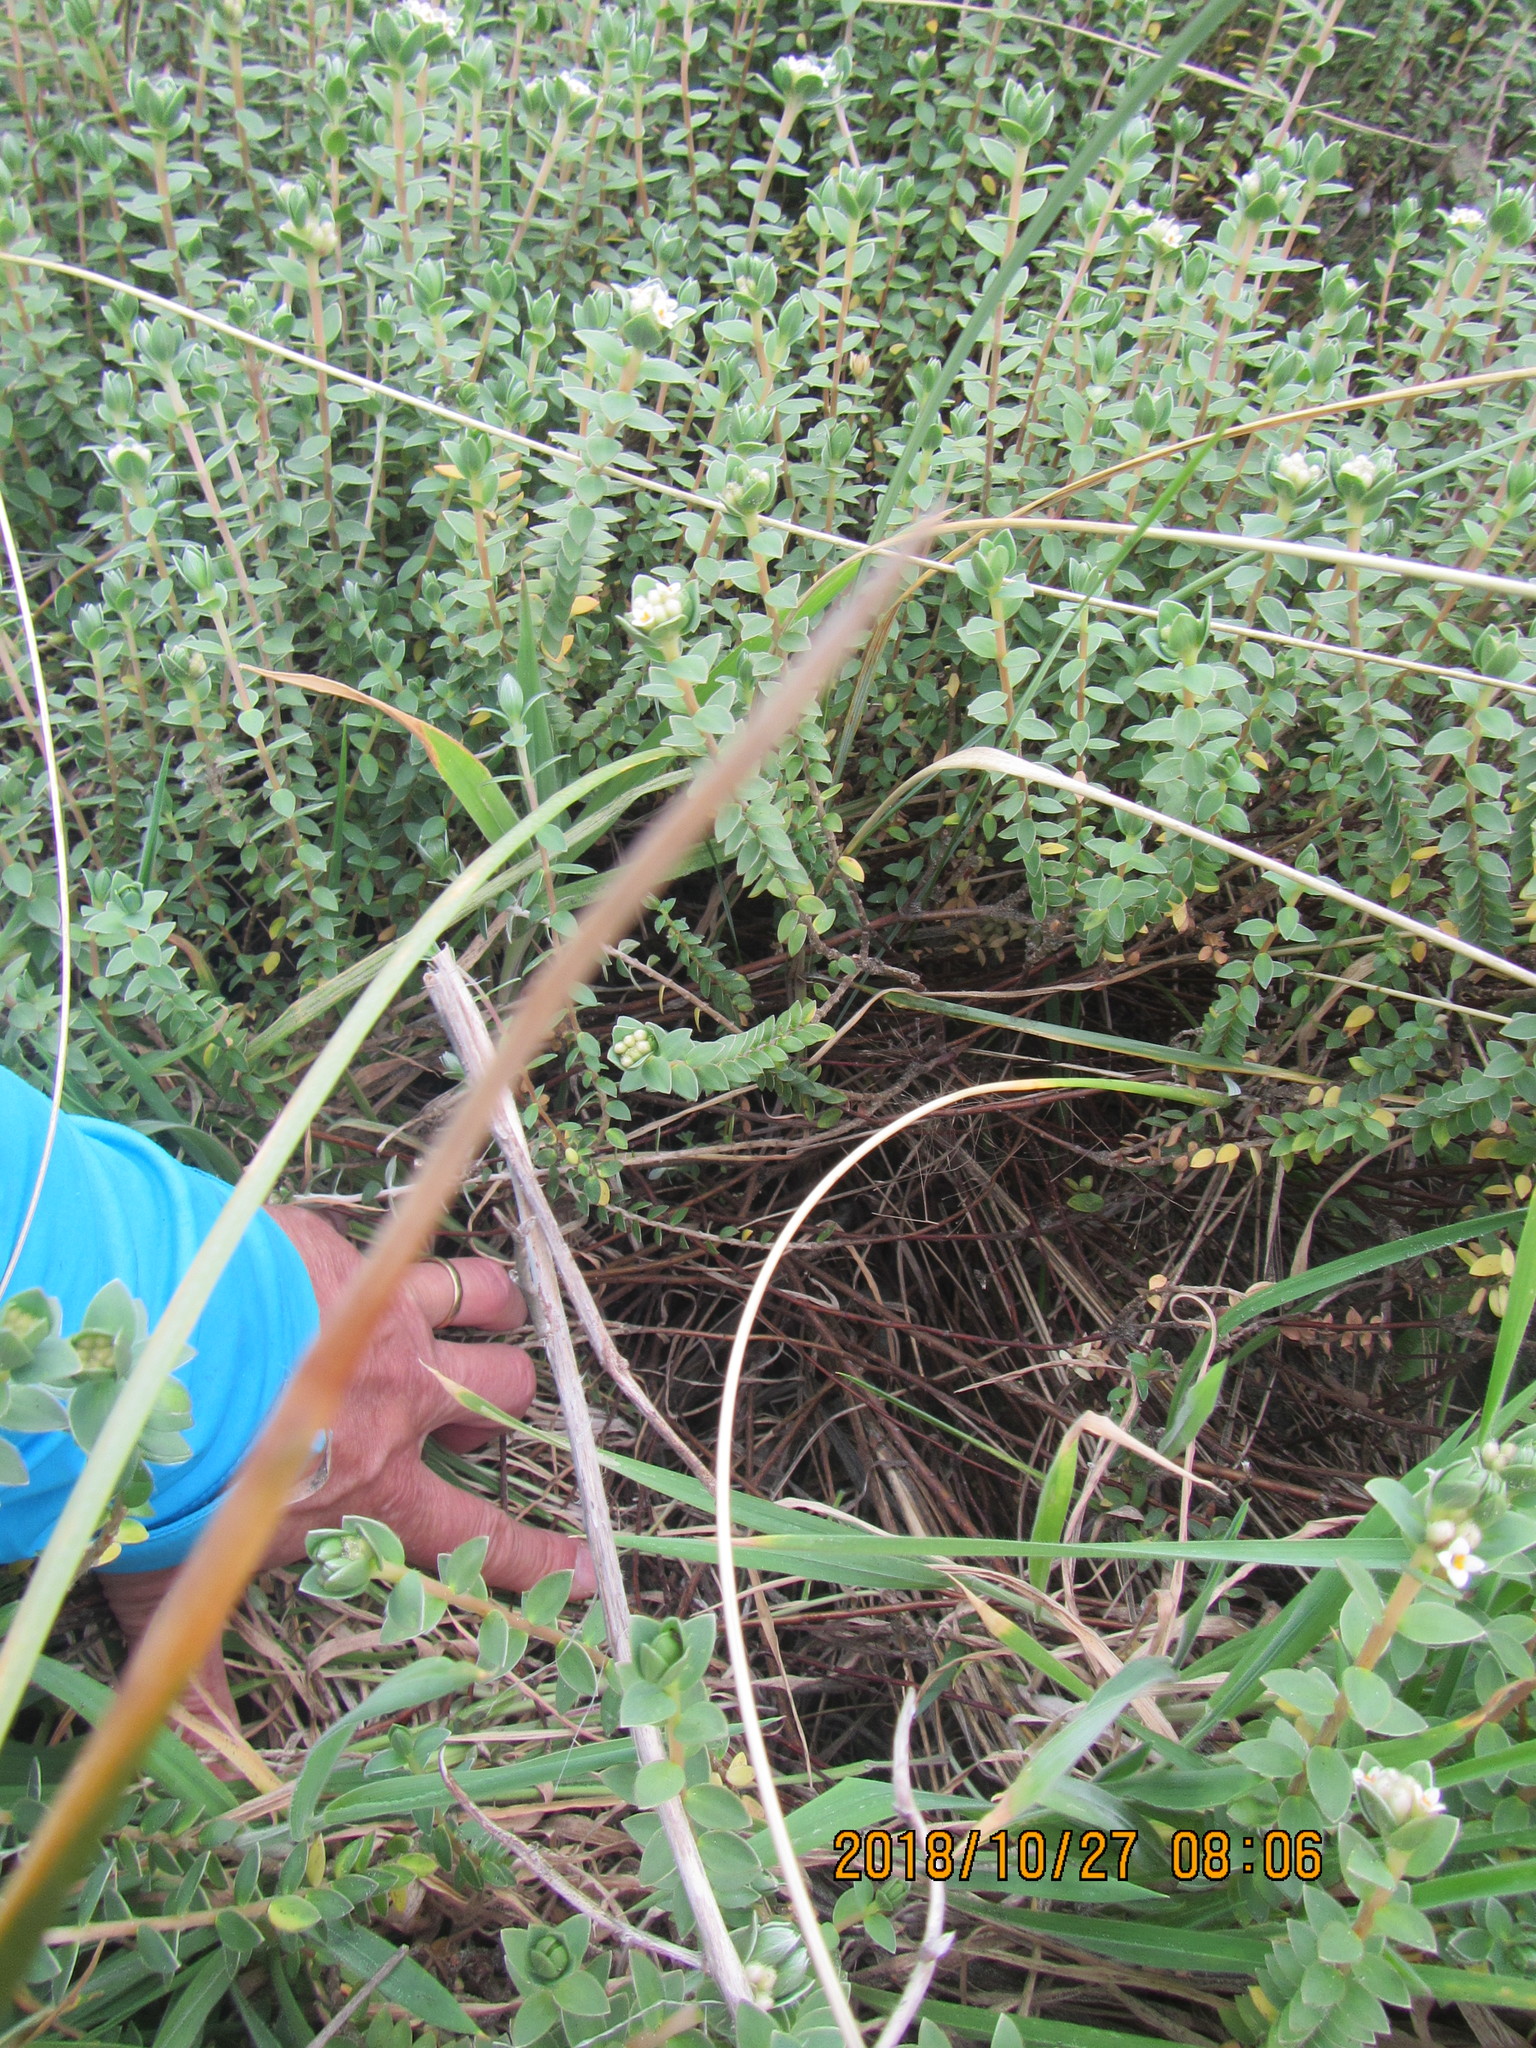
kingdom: Plantae
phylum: Tracheophyta
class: Magnoliopsida
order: Malvales
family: Thymelaeaceae
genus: Pimelea
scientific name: Pimelea villosa
